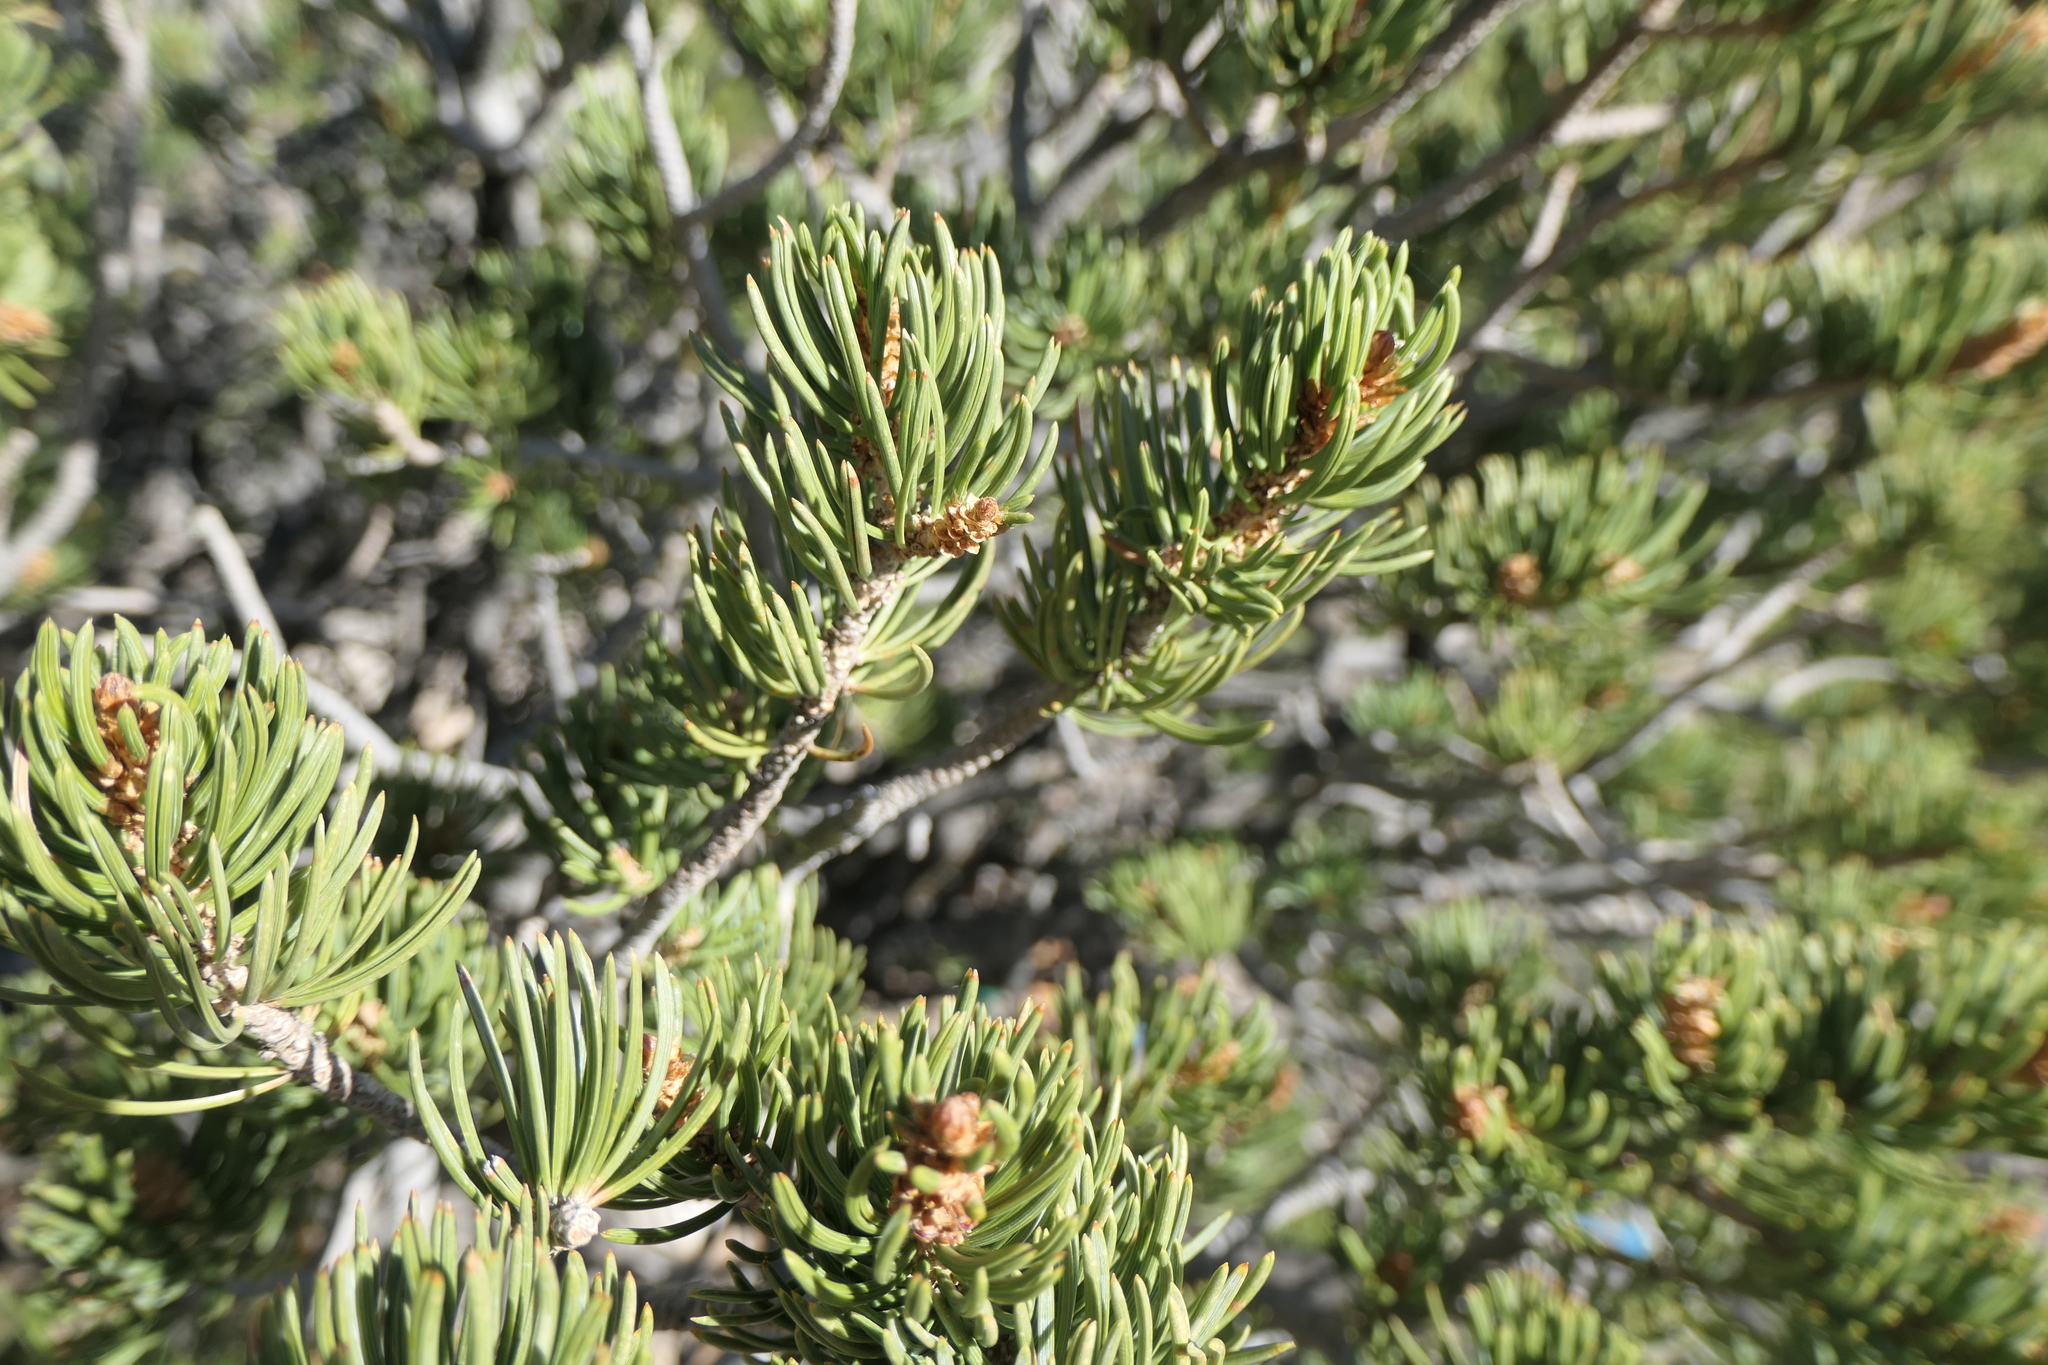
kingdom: Plantae
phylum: Tracheophyta
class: Pinopsida
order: Pinales
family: Pinaceae
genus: Pinus
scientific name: Pinus edulis
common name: Colorado pinyon
